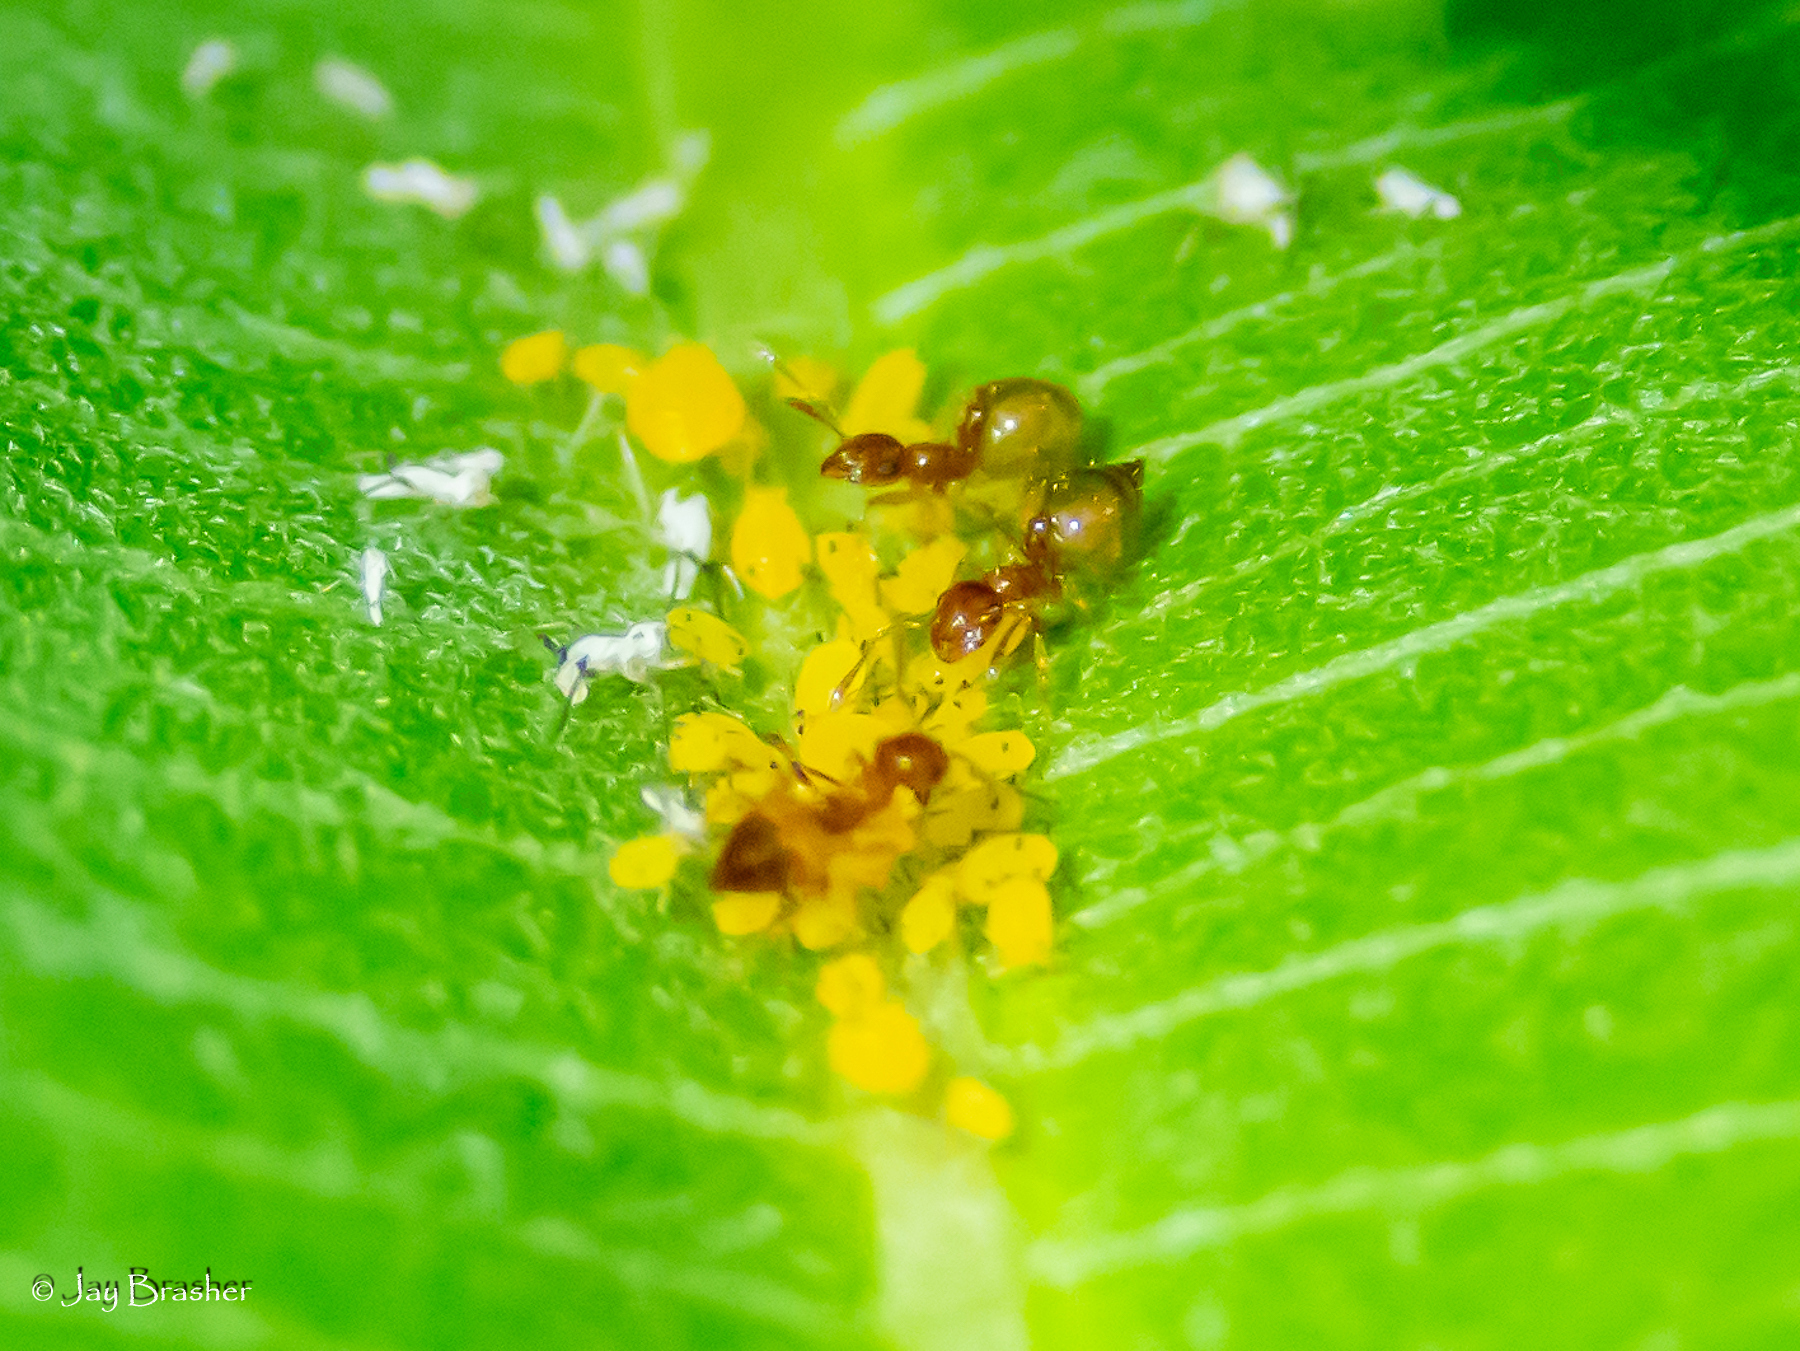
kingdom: Animalia
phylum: Arthropoda
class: Insecta
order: Hymenoptera
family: Formicidae
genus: Crematogaster
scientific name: Crematogaster missouriensis
